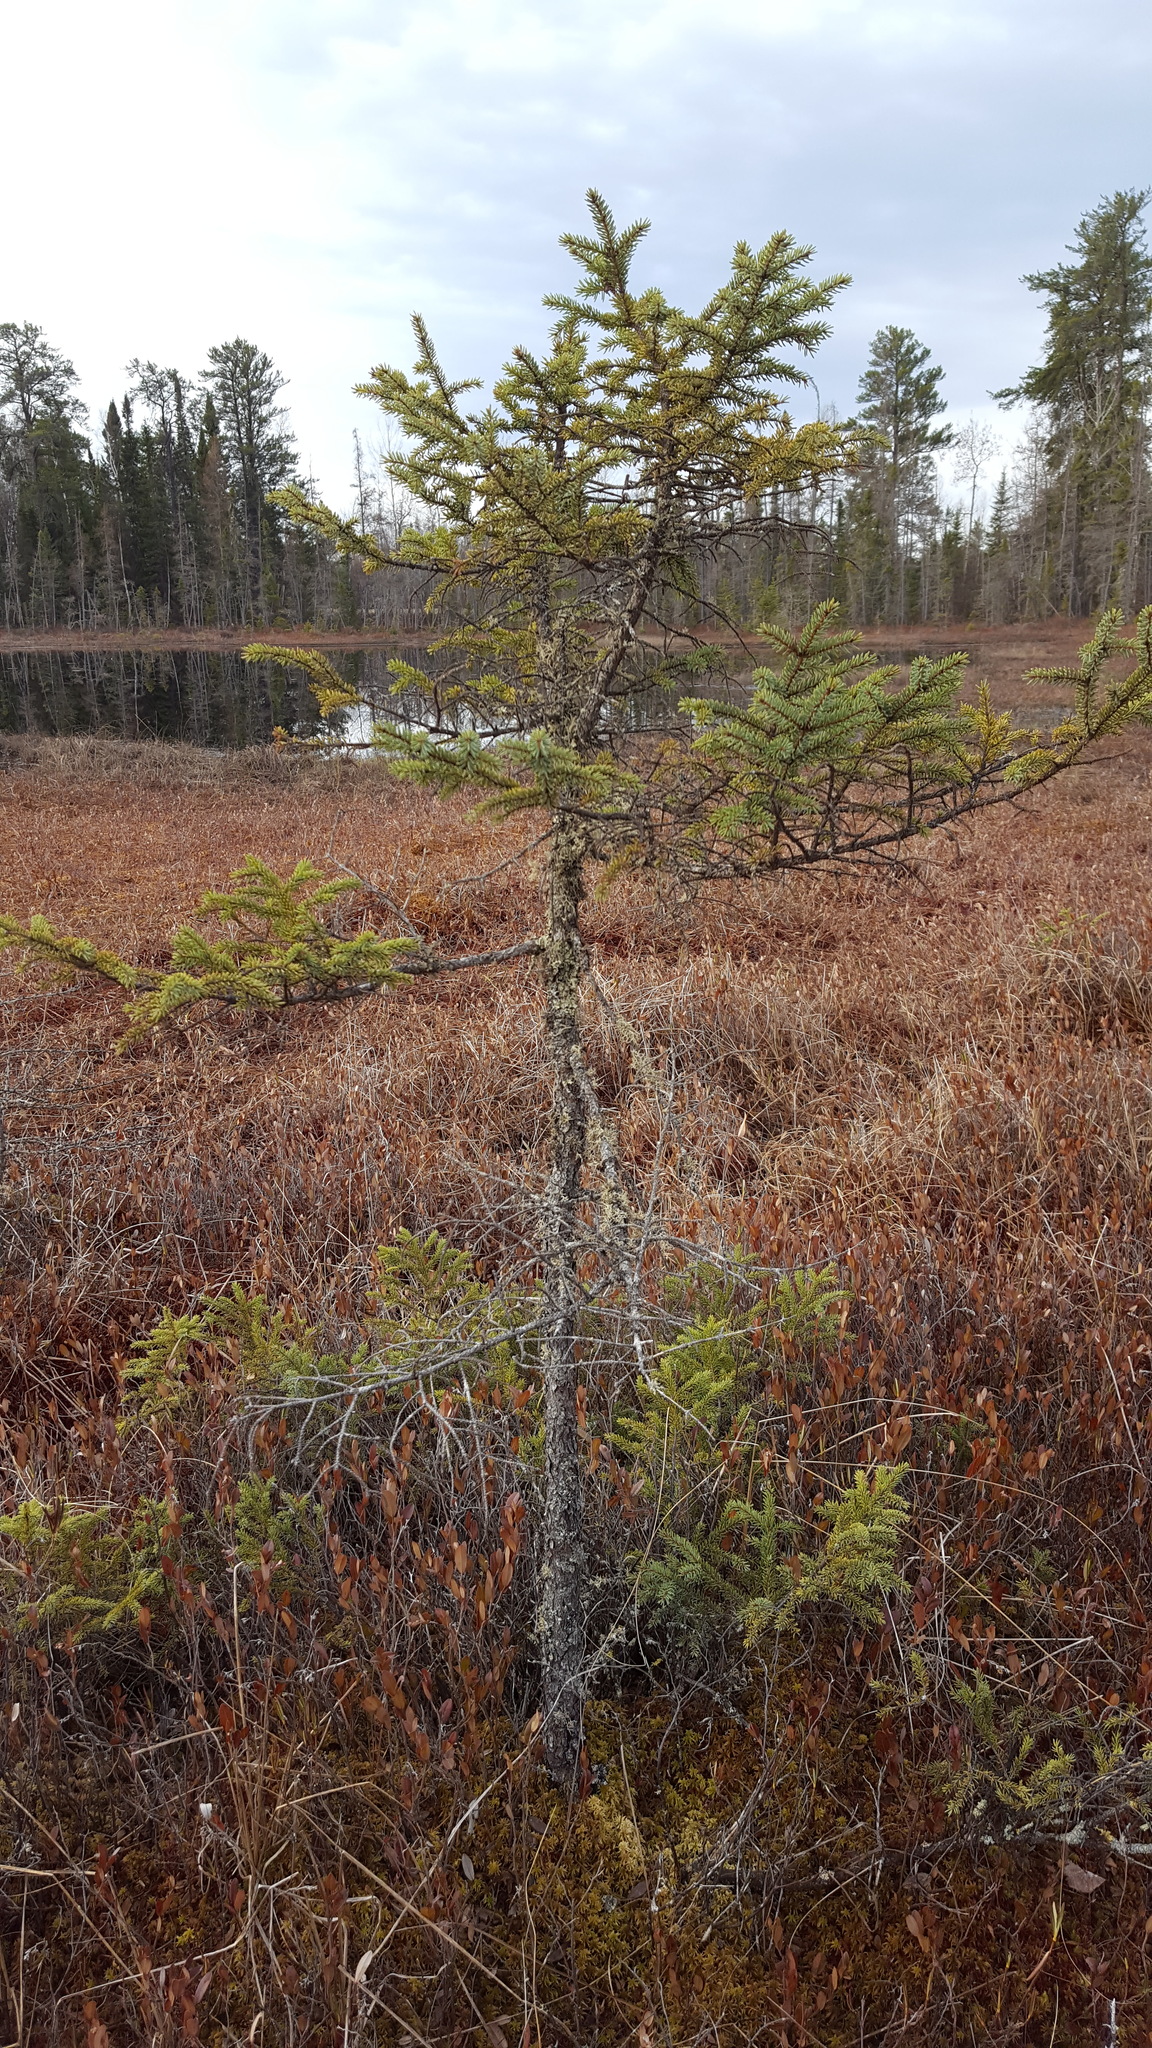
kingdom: Plantae
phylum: Tracheophyta
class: Pinopsida
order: Pinales
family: Pinaceae
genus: Picea
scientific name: Picea mariana
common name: Black spruce
